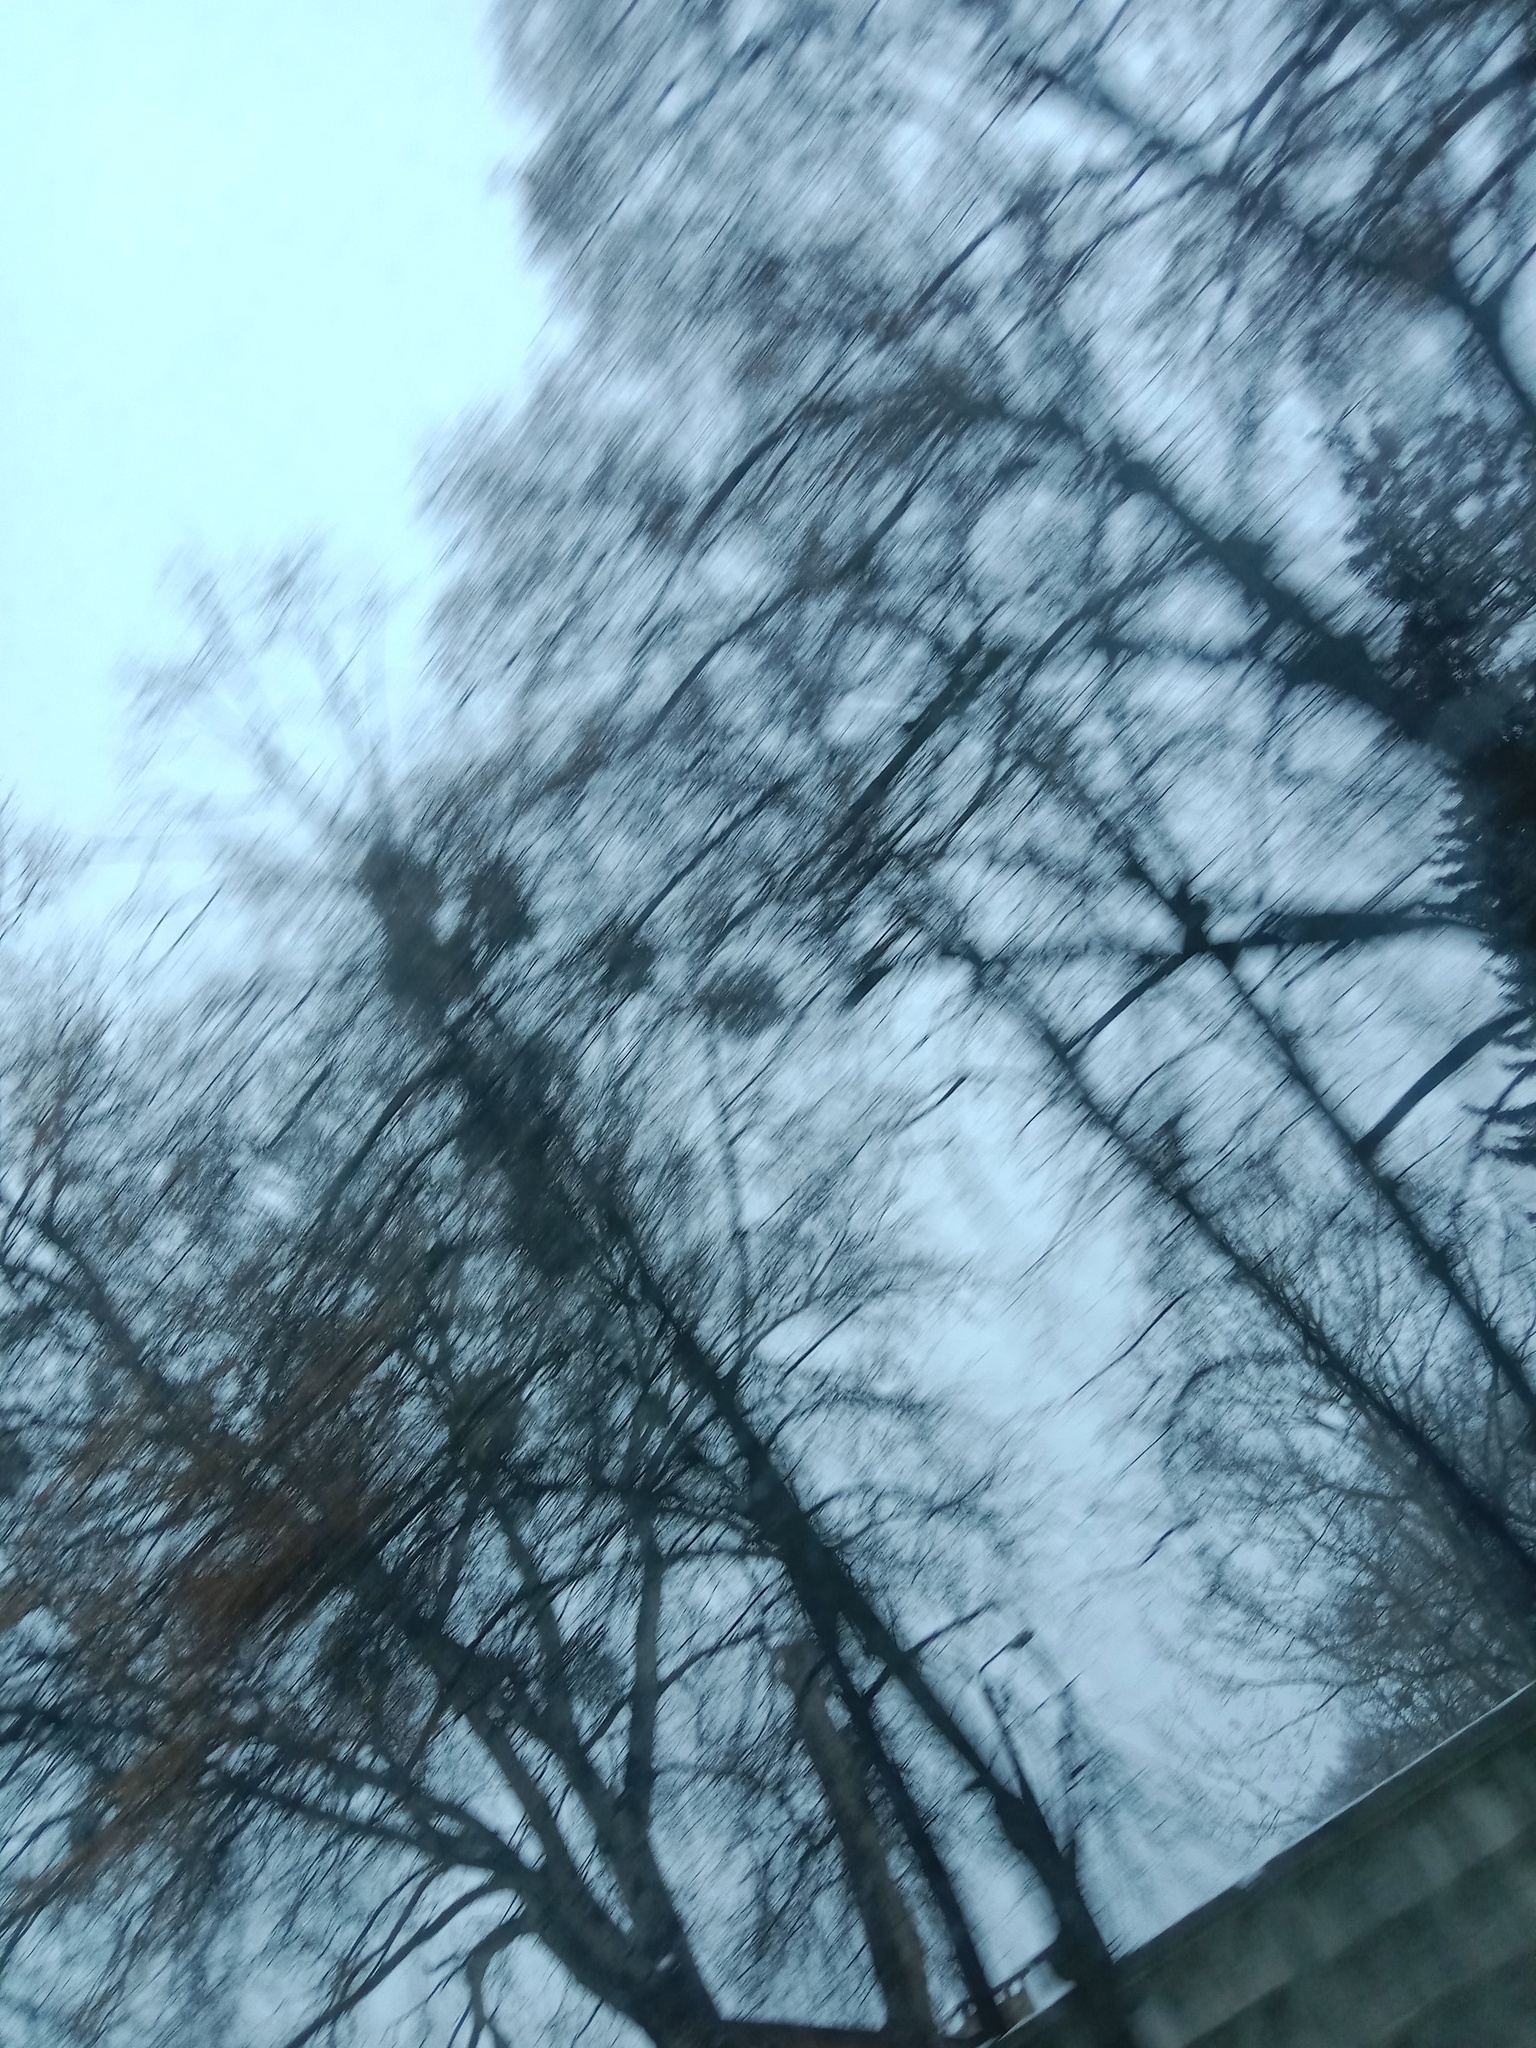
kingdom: Plantae
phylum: Tracheophyta
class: Magnoliopsida
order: Santalales
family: Viscaceae
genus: Viscum
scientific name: Viscum album
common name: Mistletoe
